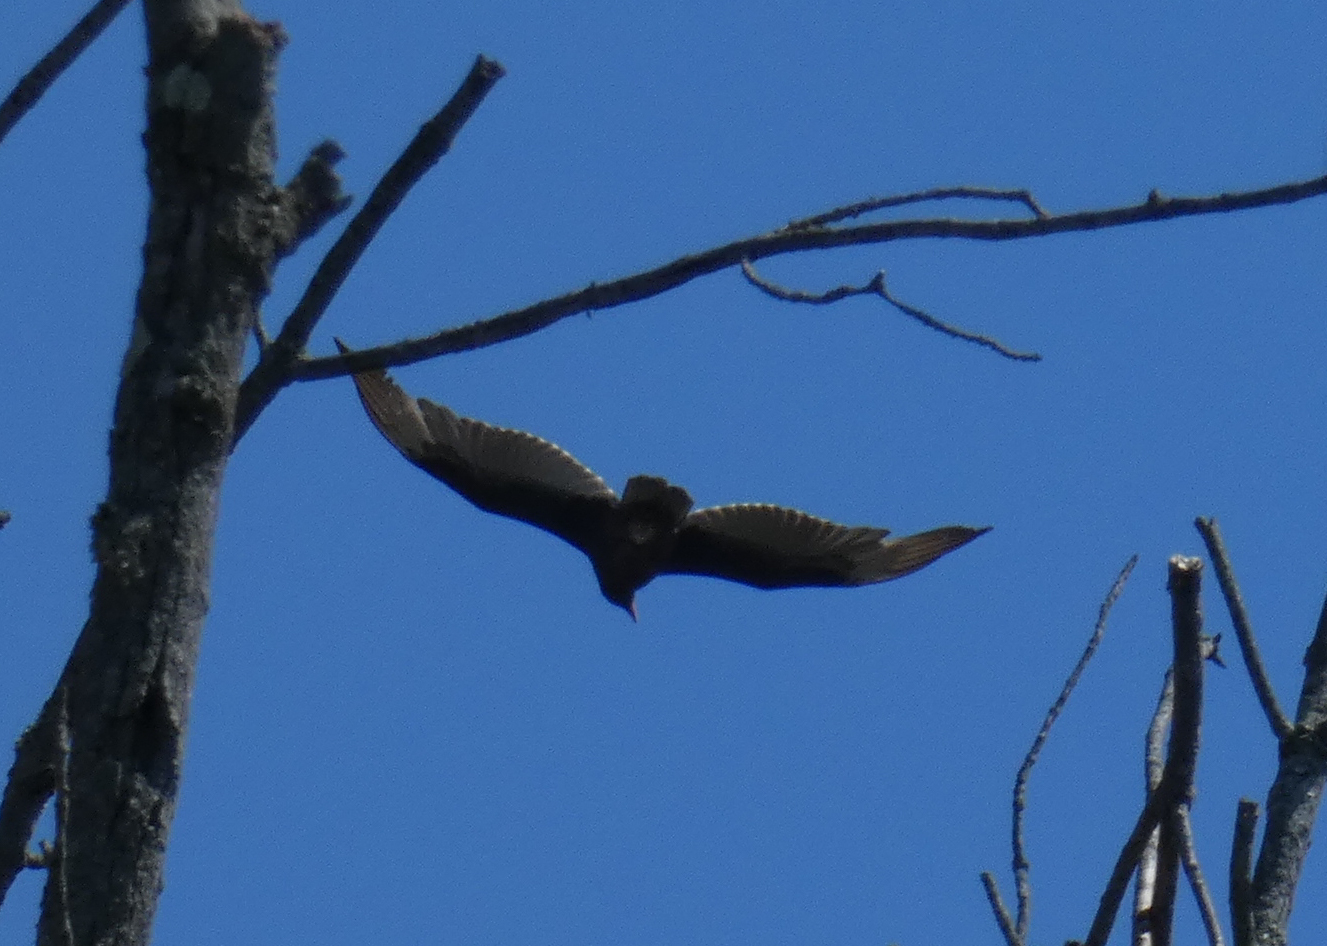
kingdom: Animalia
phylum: Chordata
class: Aves
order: Accipitriformes
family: Cathartidae
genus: Cathartes
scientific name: Cathartes aura
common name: Turkey vulture
